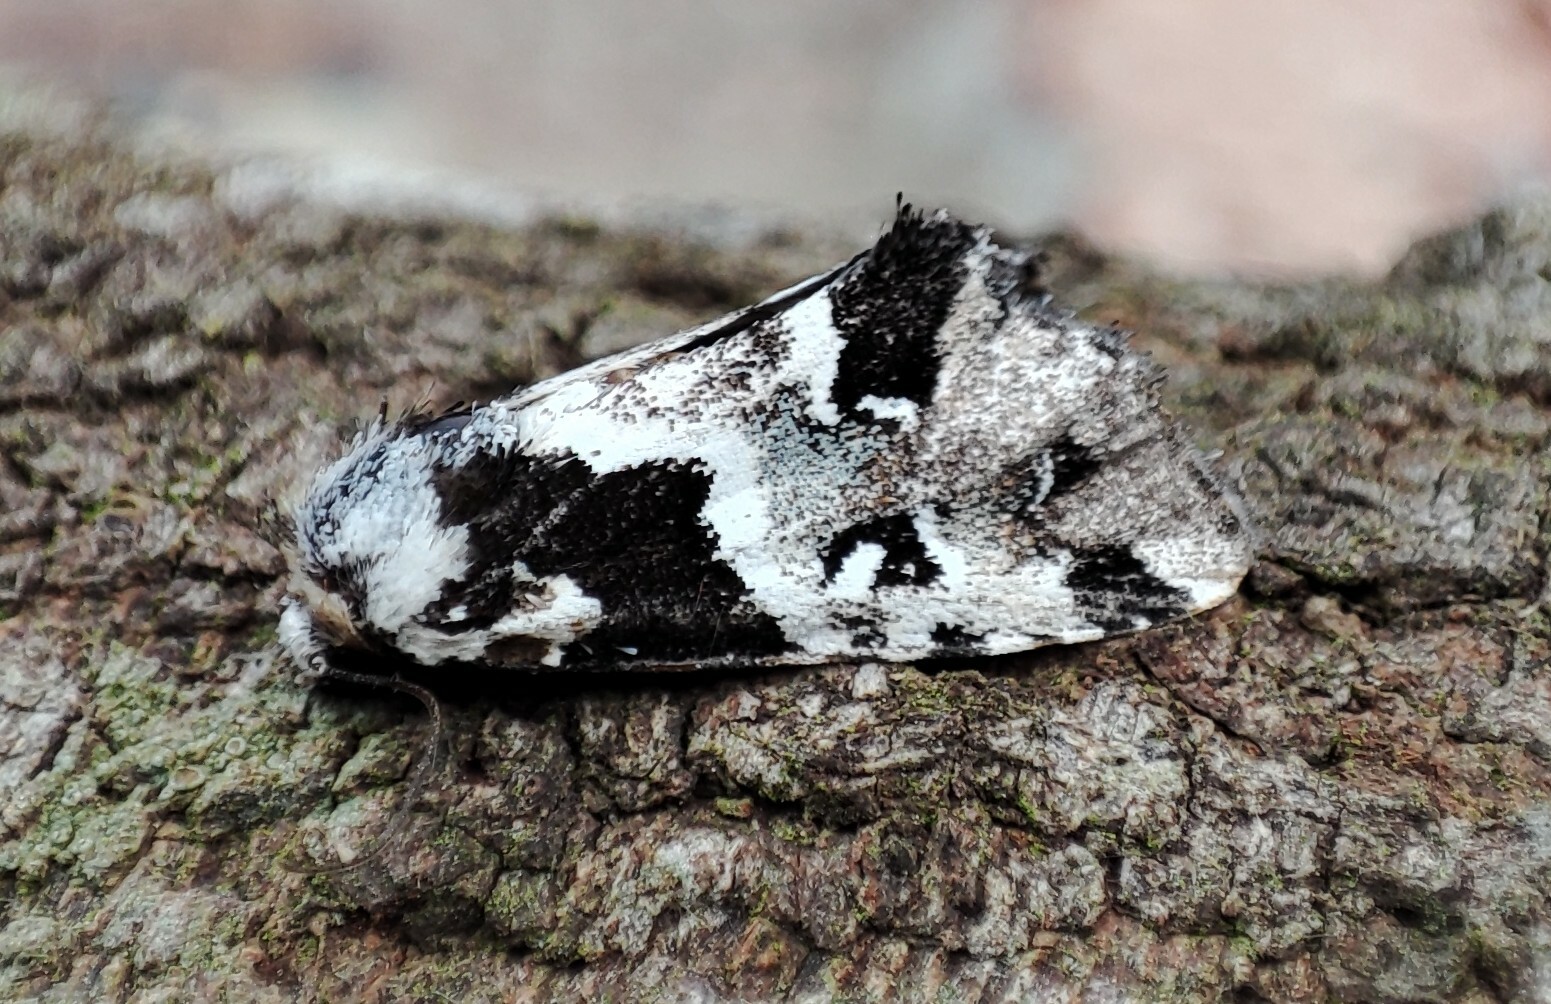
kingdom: Animalia
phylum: Arthropoda
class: Insecta
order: Lepidoptera
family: Noctuidae
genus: Leucotrachea
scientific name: Leucotrachea melanobis
